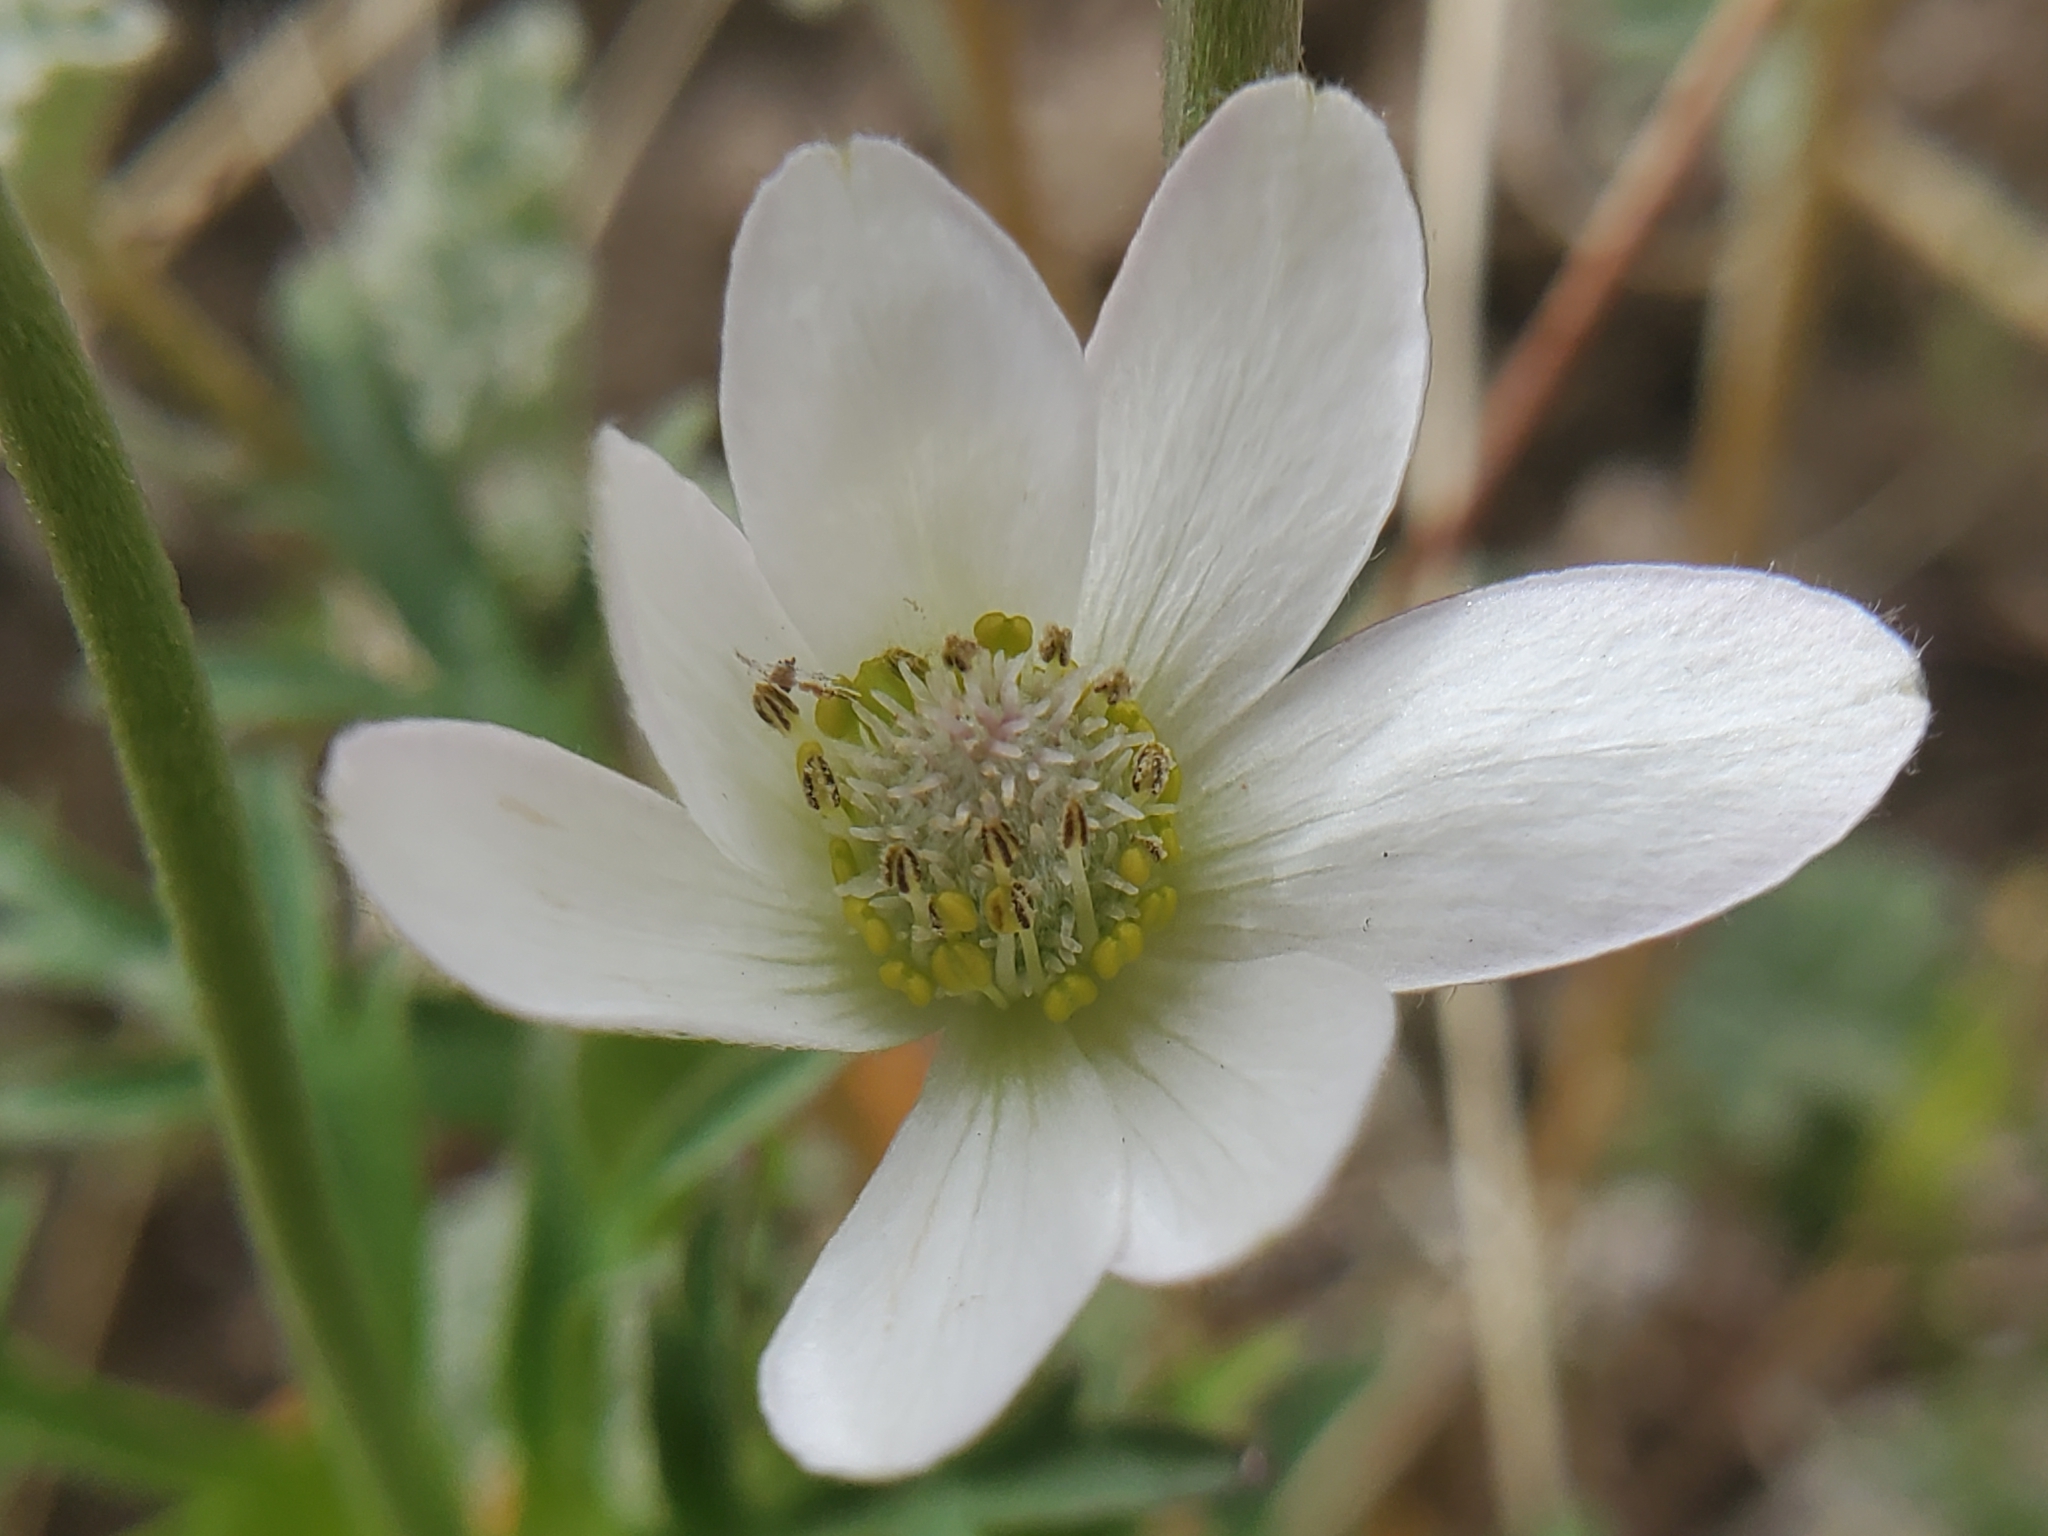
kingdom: Plantae
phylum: Tracheophyta
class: Magnoliopsida
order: Ranunculales
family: Ranunculaceae
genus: Anemone
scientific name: Anemone tuberosa
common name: Desert anemone
